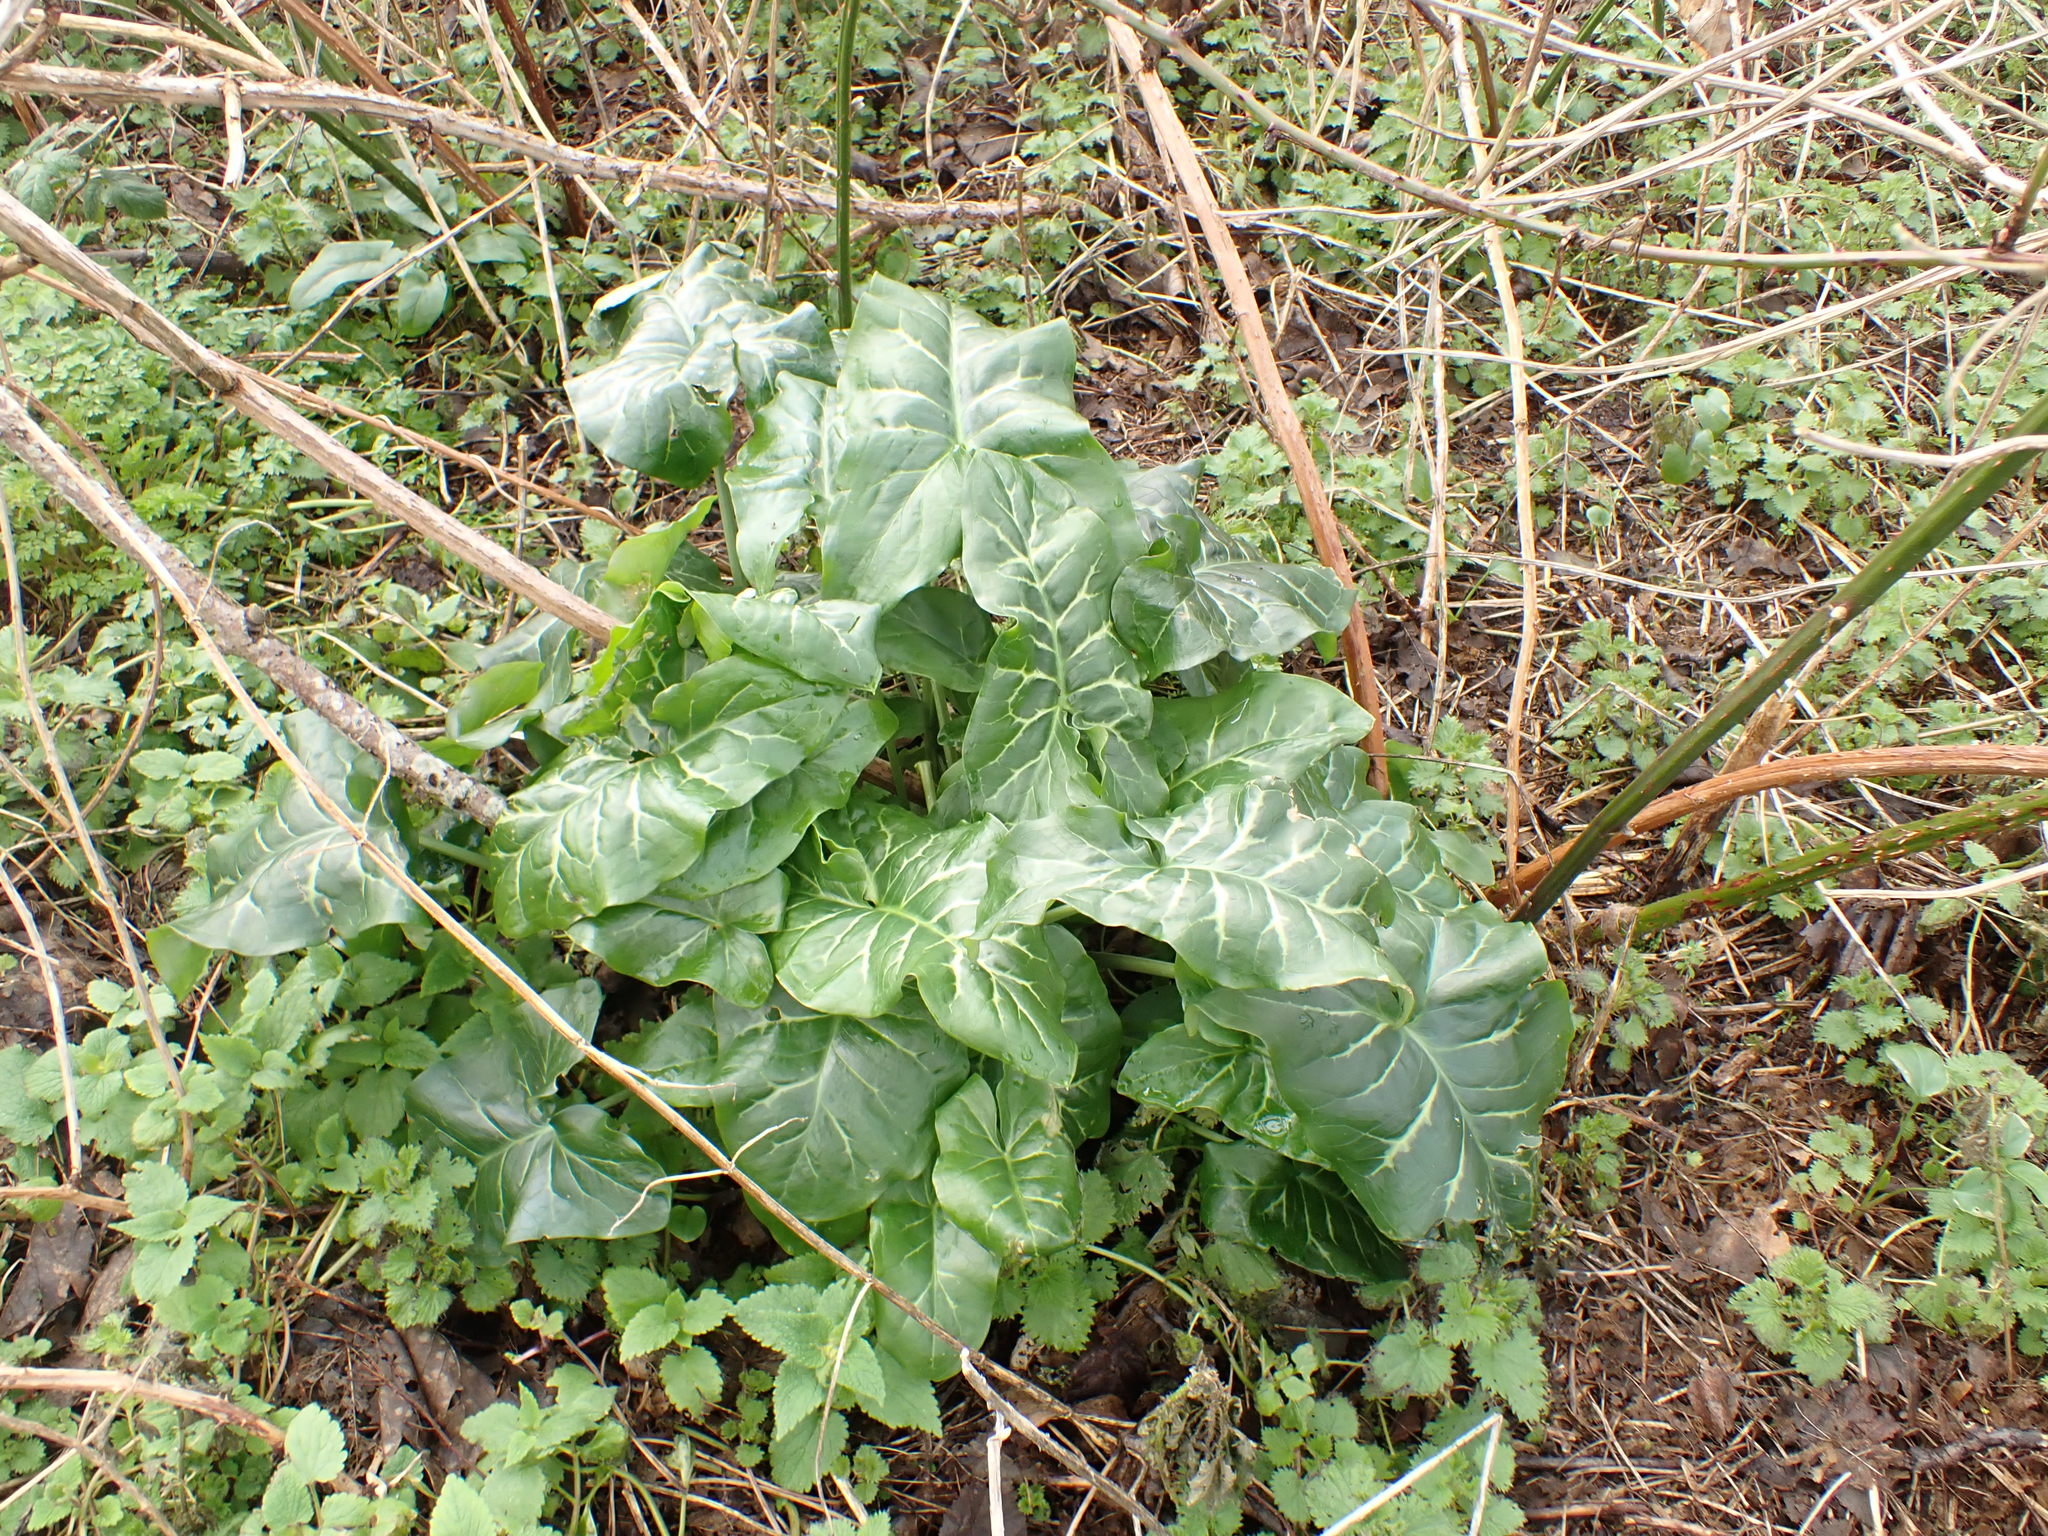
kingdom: Plantae
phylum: Tracheophyta
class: Liliopsida
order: Alismatales
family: Araceae
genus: Arum
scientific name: Arum italicum
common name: Italian lords-and-ladies
